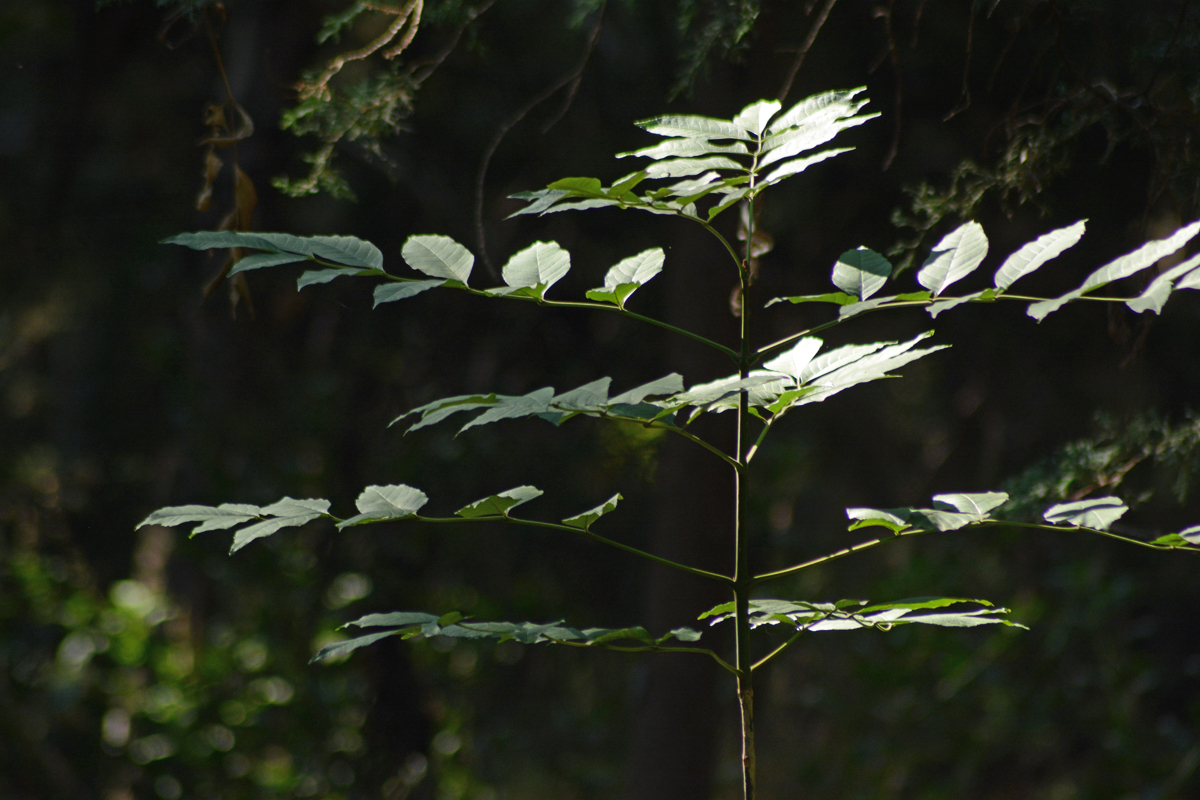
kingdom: Plantae
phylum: Tracheophyta
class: Magnoliopsida
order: Lamiales
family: Oleaceae
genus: Fraxinus
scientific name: Fraxinus uhdei
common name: Shamel ash
